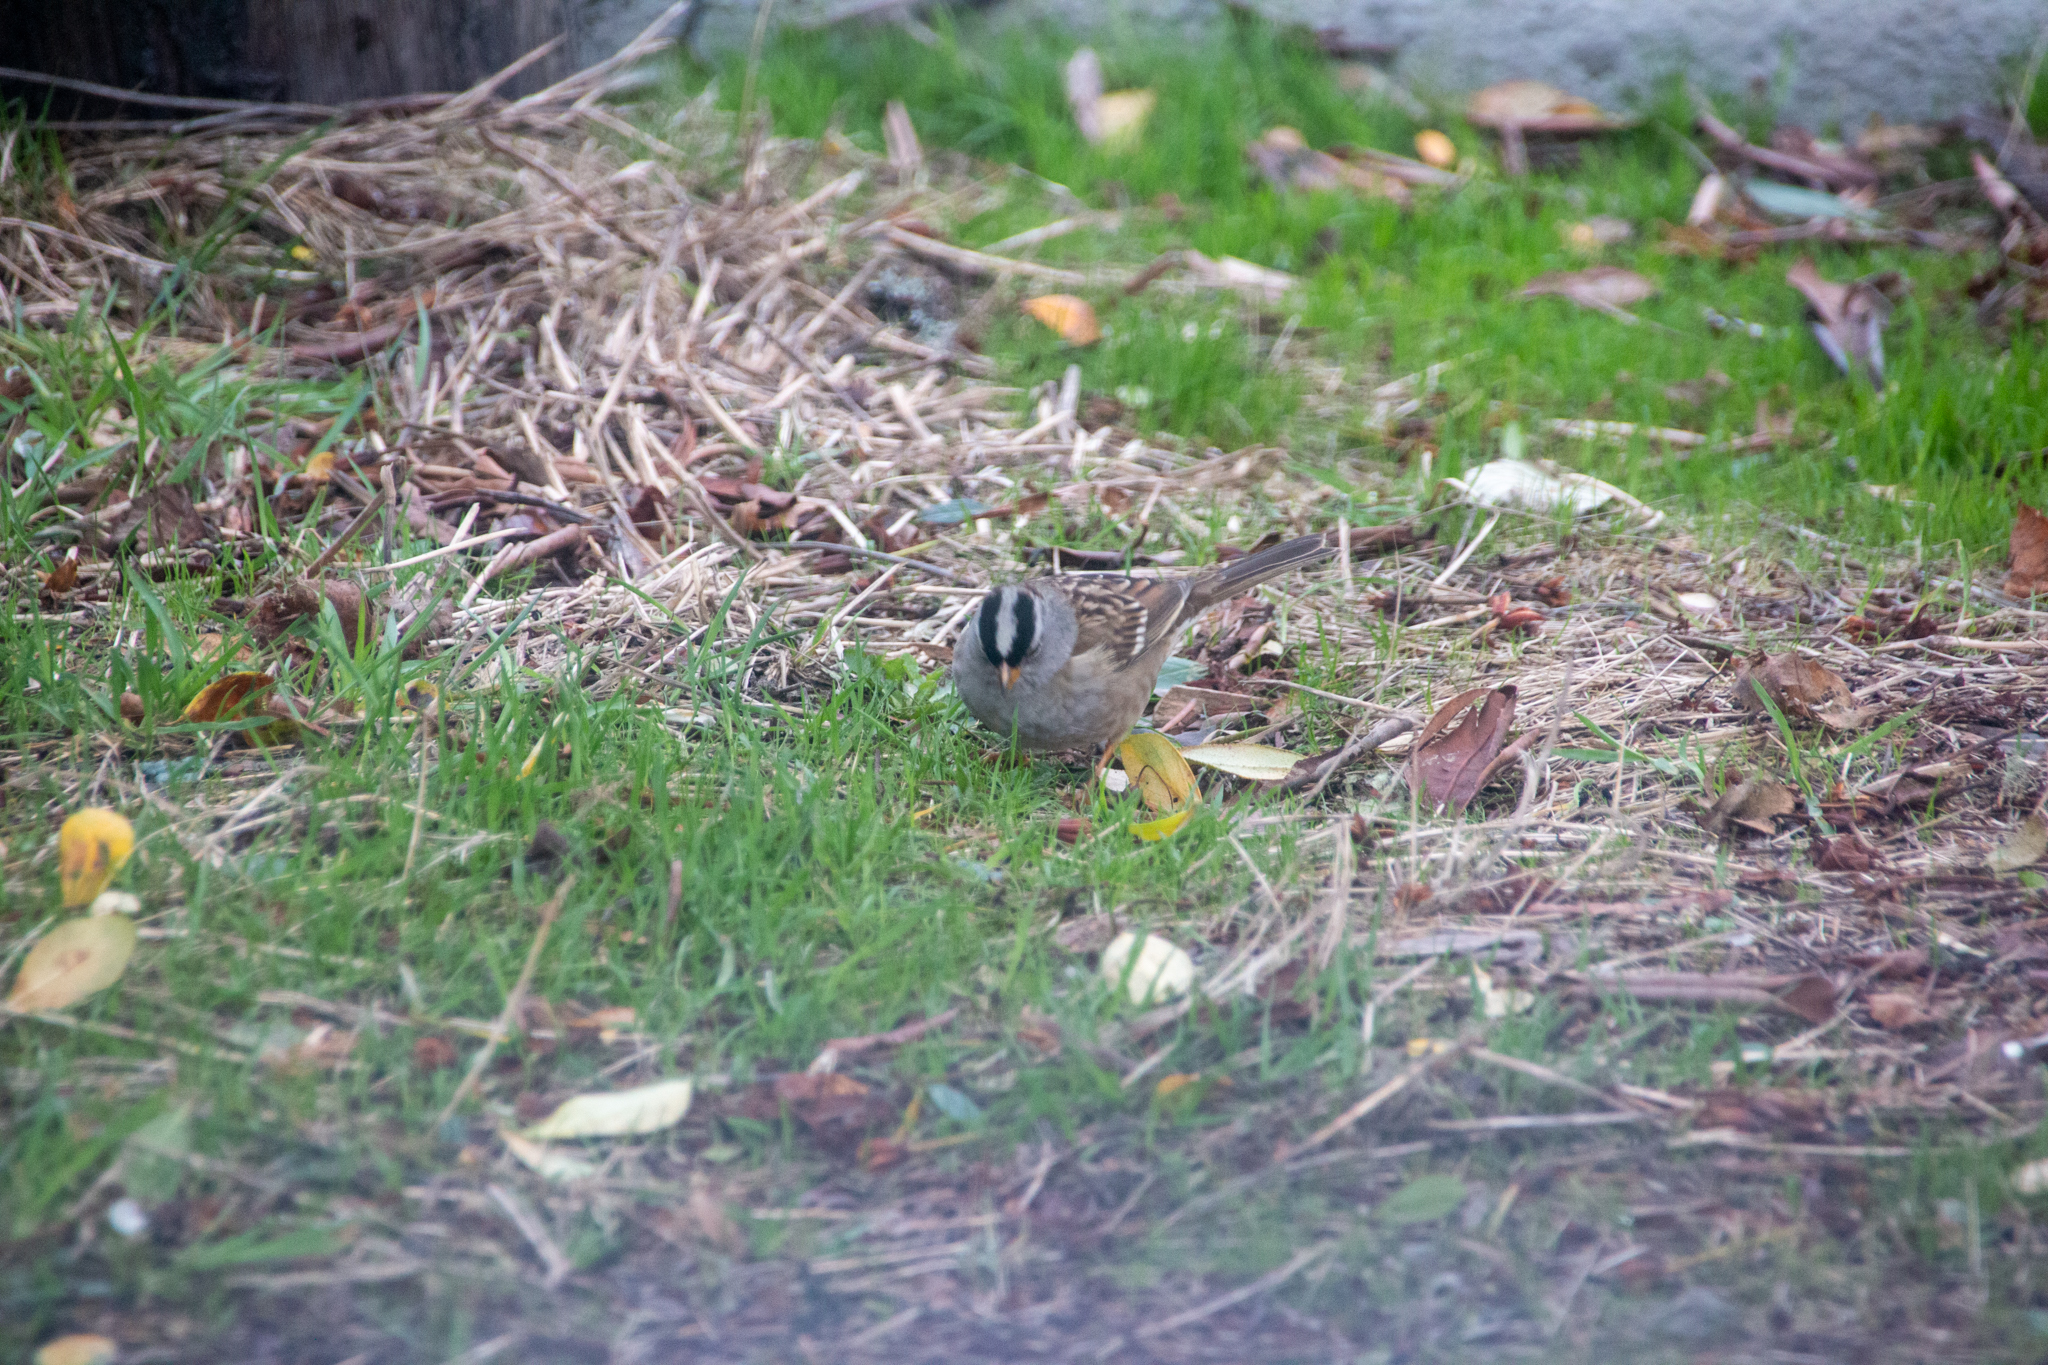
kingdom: Animalia
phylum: Chordata
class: Aves
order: Passeriformes
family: Passerellidae
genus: Zonotrichia
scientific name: Zonotrichia leucophrys
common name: White-crowned sparrow
